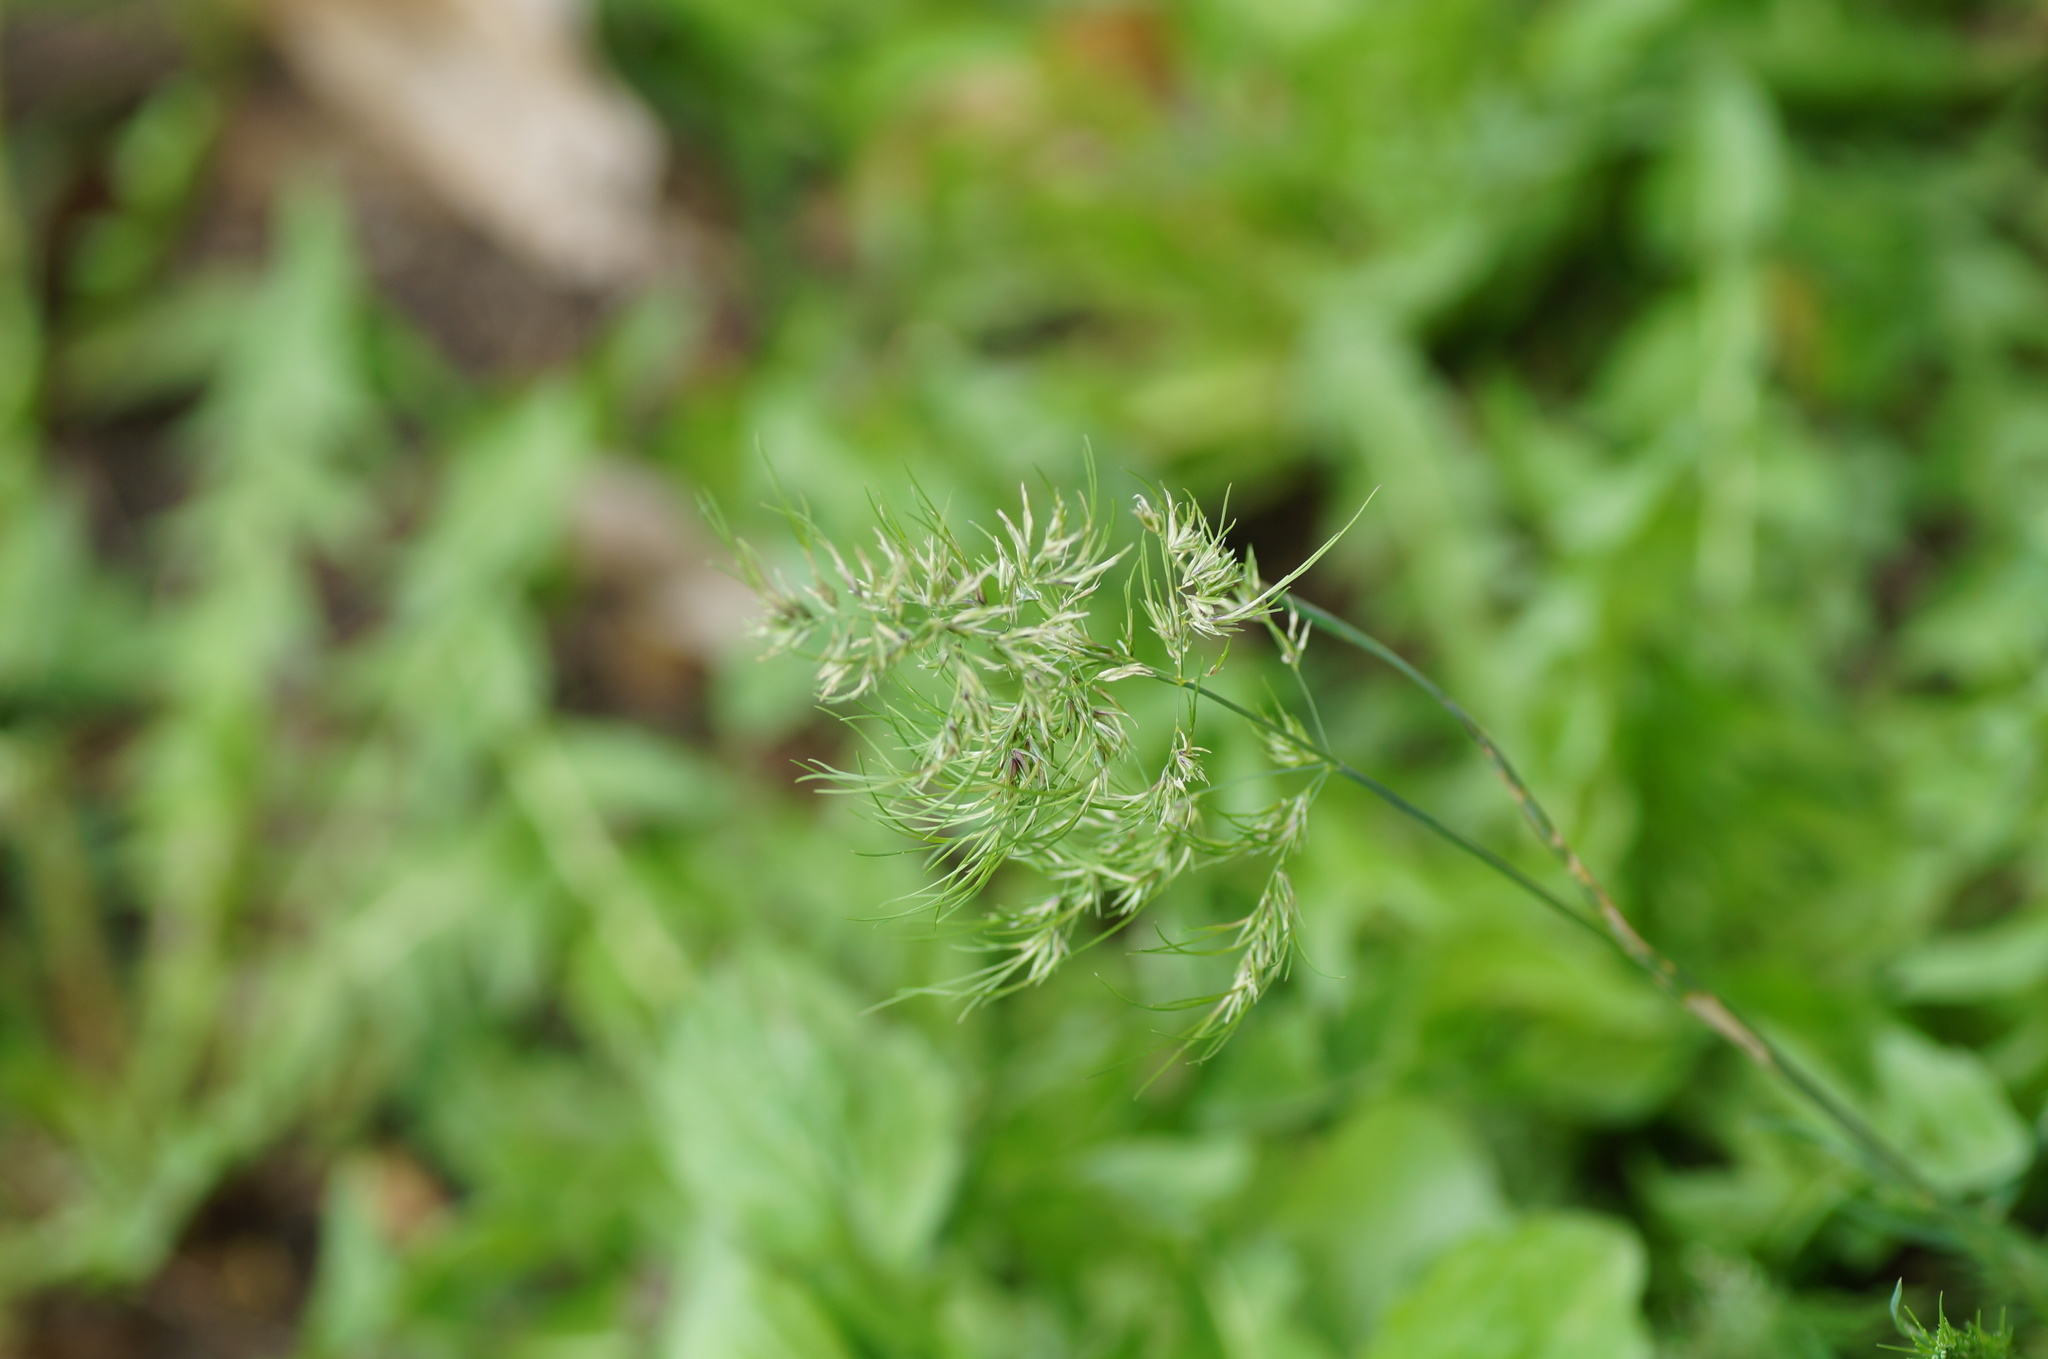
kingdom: Plantae
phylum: Tracheophyta
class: Liliopsida
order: Poales
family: Poaceae
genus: Poa
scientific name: Poa bulbosa
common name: Bulbous bluegrass
